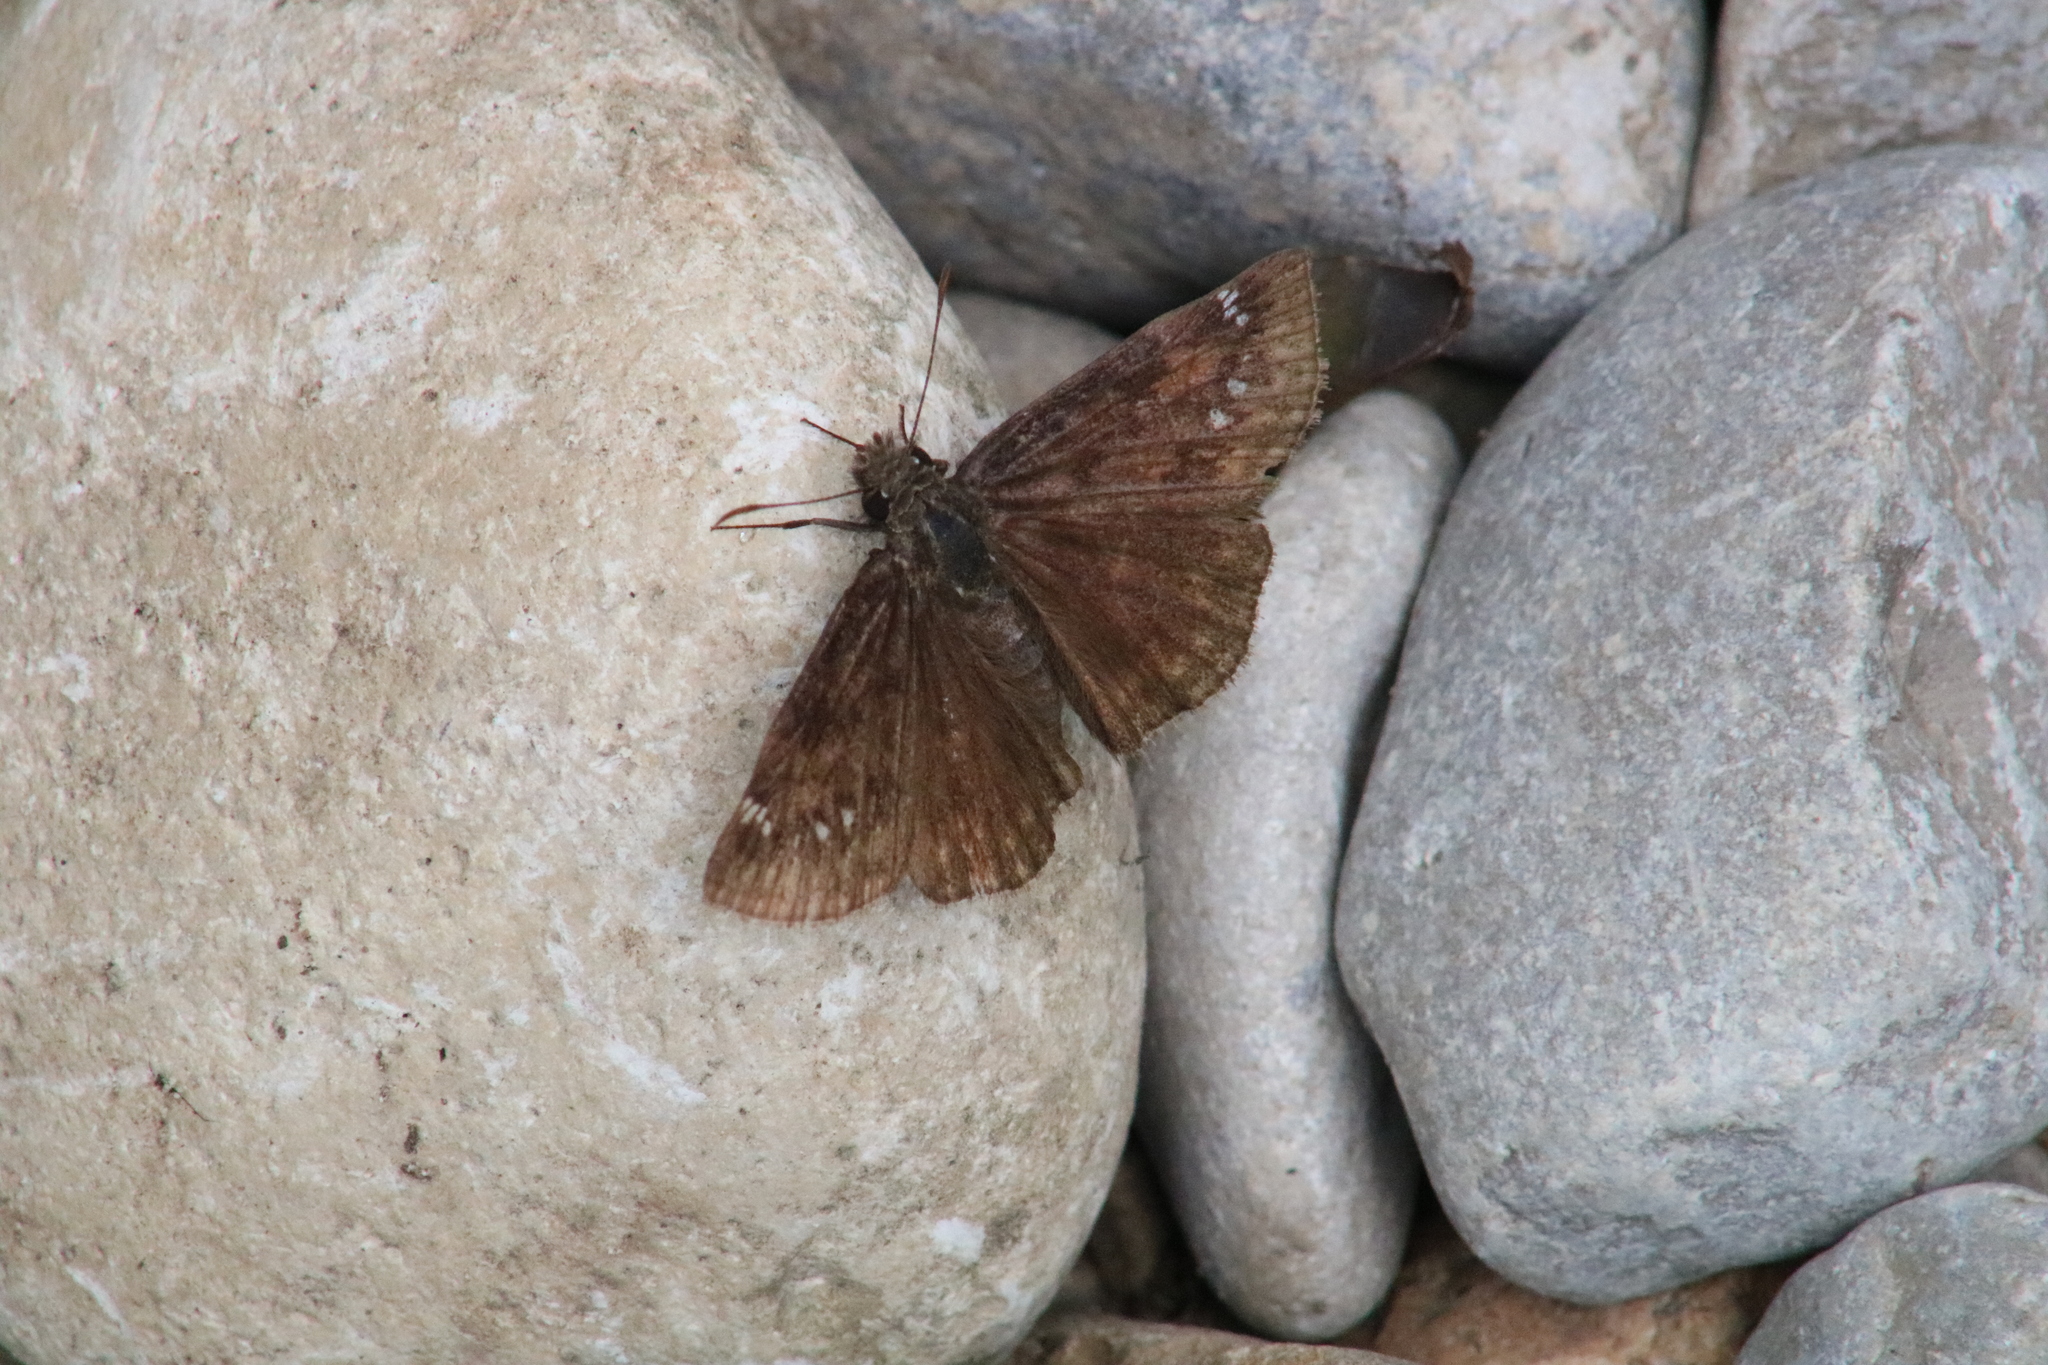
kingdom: Animalia
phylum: Arthropoda
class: Insecta
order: Lepidoptera
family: Hesperiidae
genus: Erynnis
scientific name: Erynnis baptisiae
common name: Wild indigo duskywing
